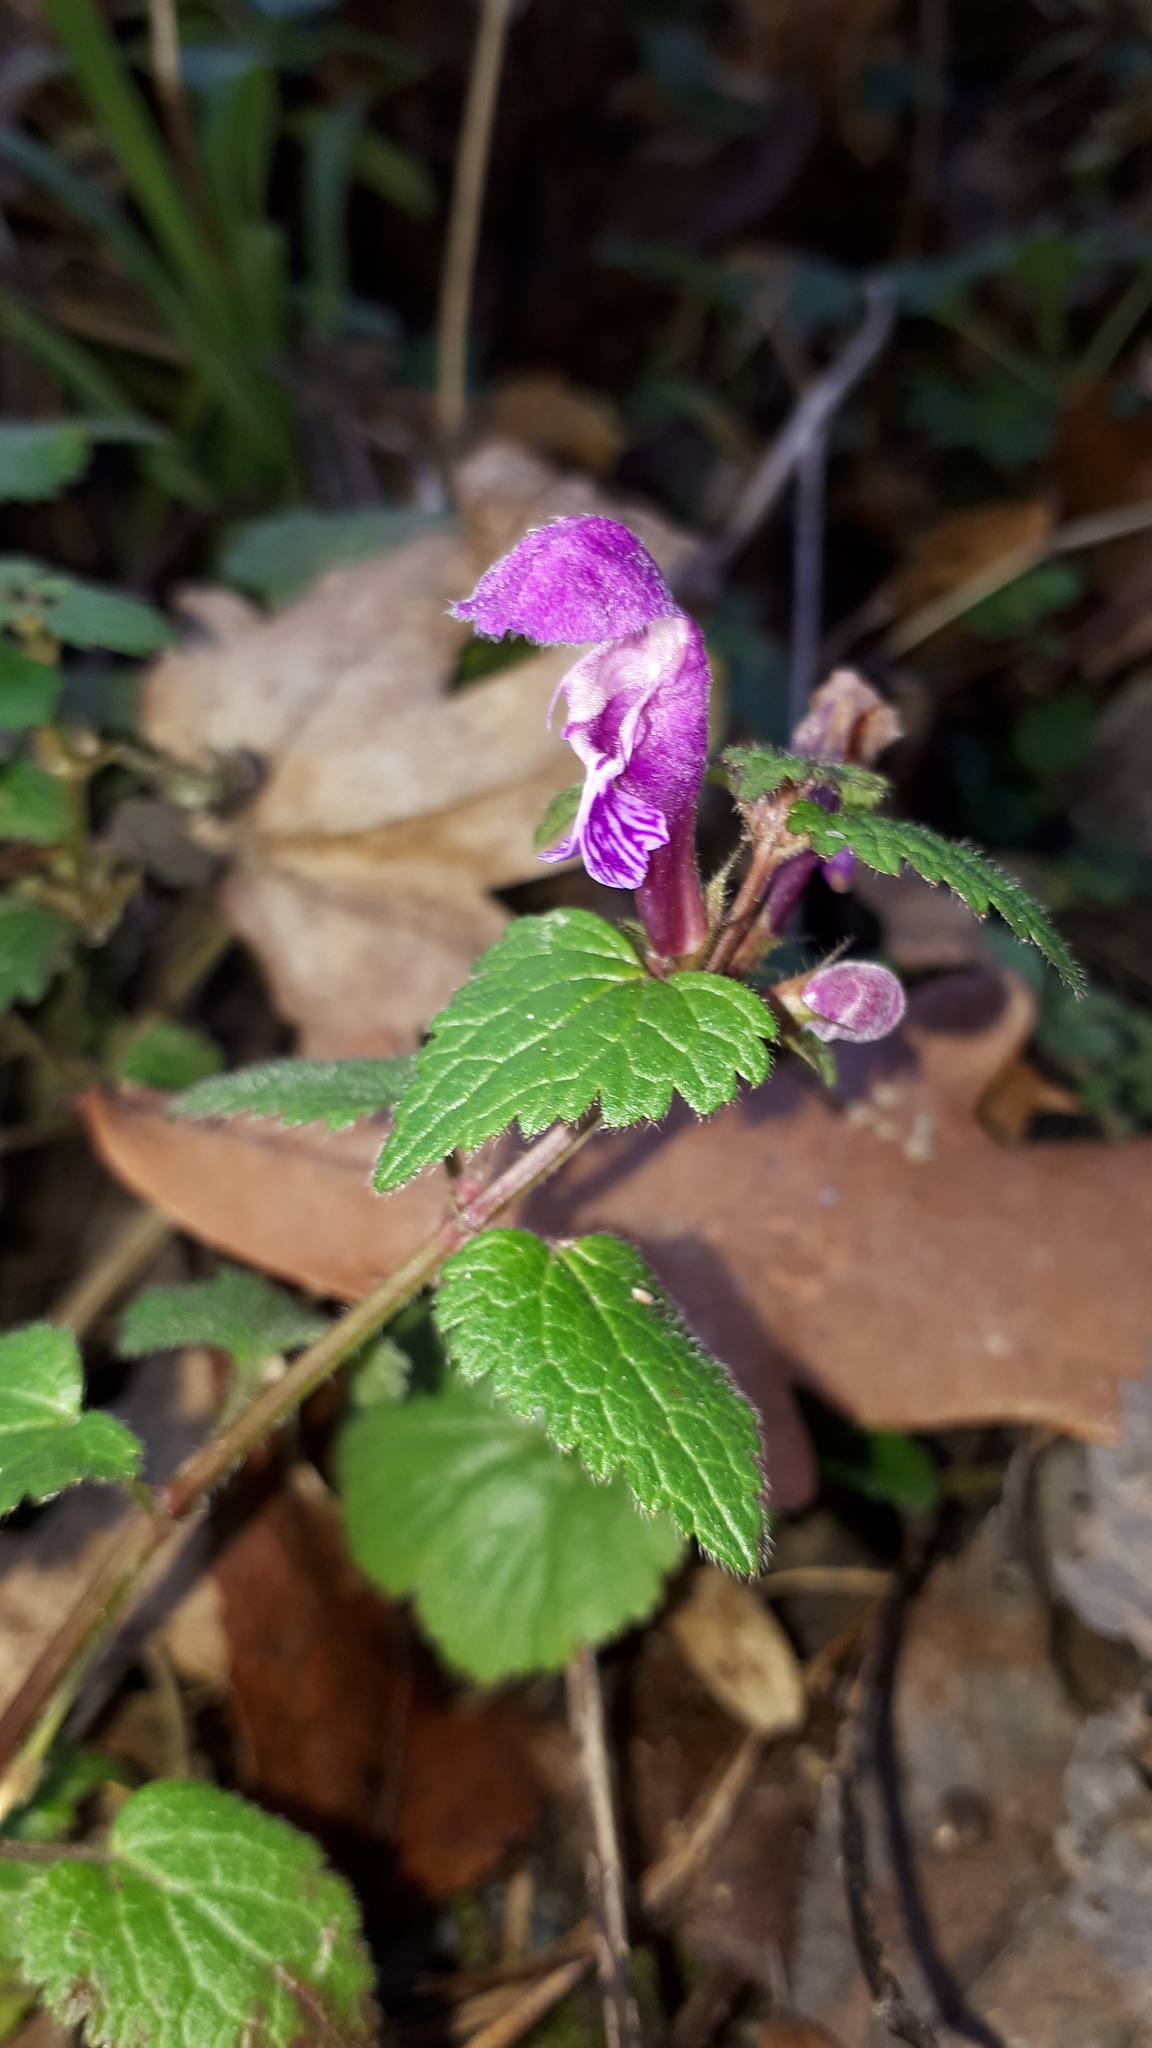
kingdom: Plantae
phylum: Tracheophyta
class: Magnoliopsida
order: Lamiales
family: Lamiaceae
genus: Lamium
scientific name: Lamium maculatum
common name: Spotted dead-nettle
